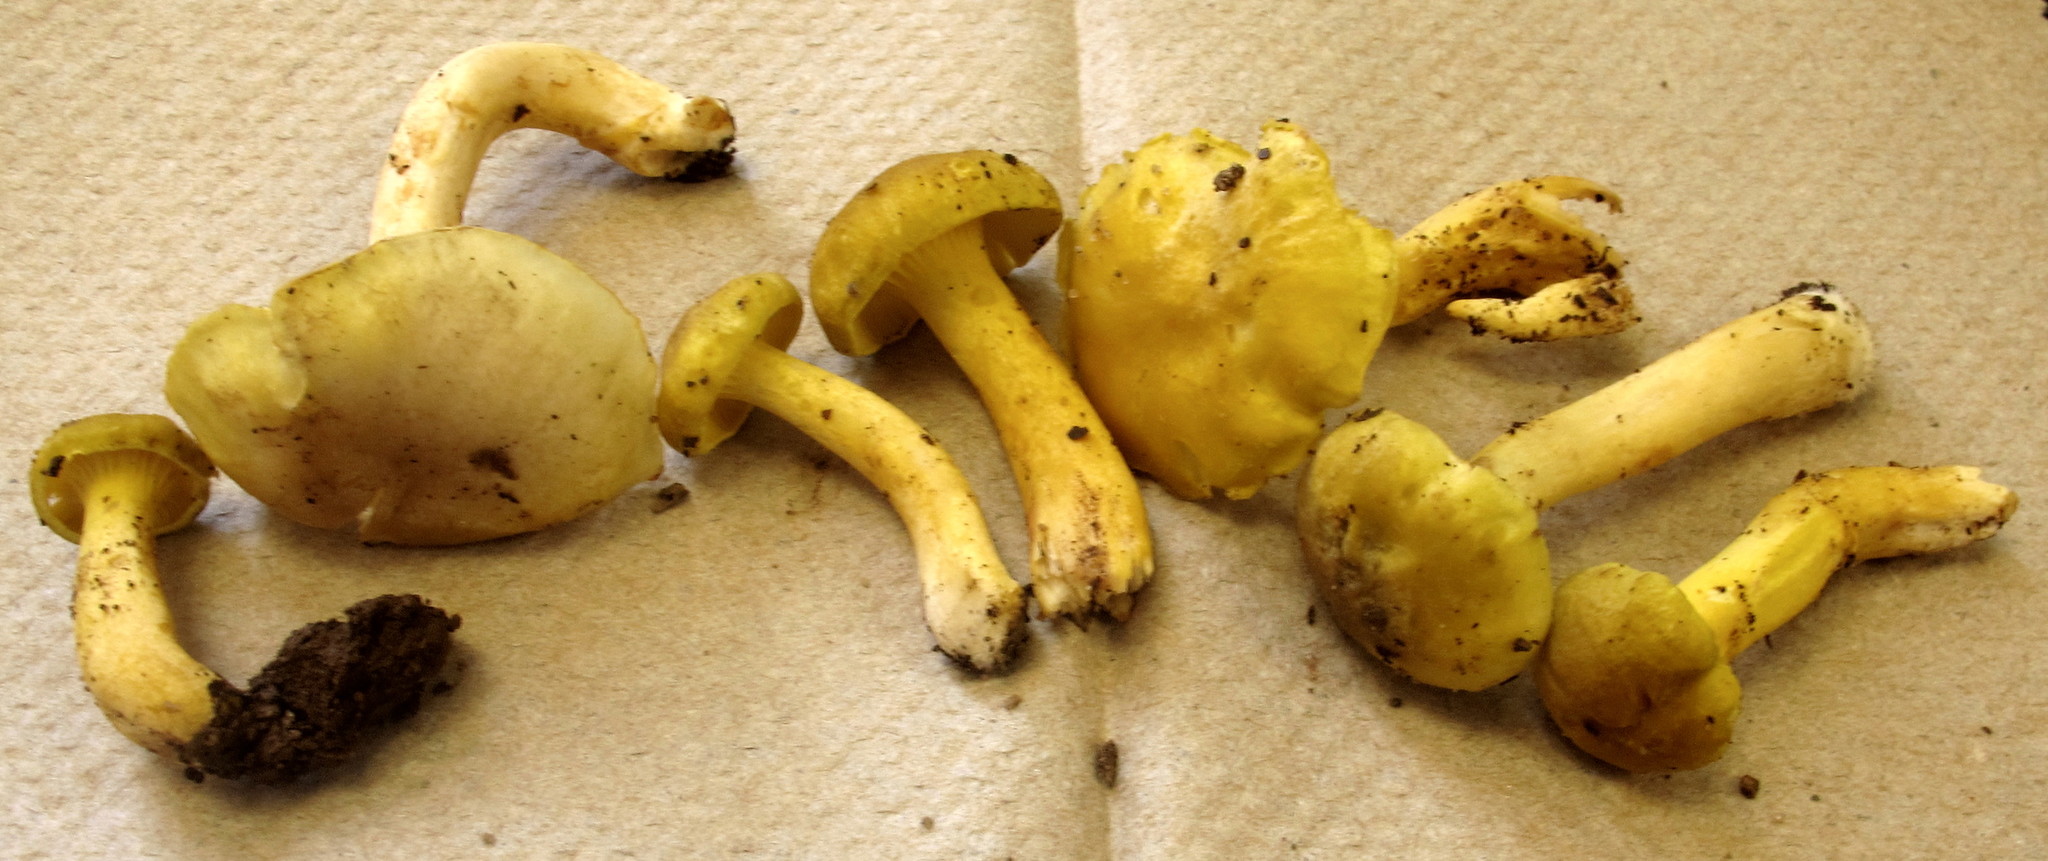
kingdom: Fungi
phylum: Basidiomycota
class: Agaricomycetes
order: Cantharellales
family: Hydnaceae
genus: Cantharellus
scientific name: Cantharellus appalachiensis
